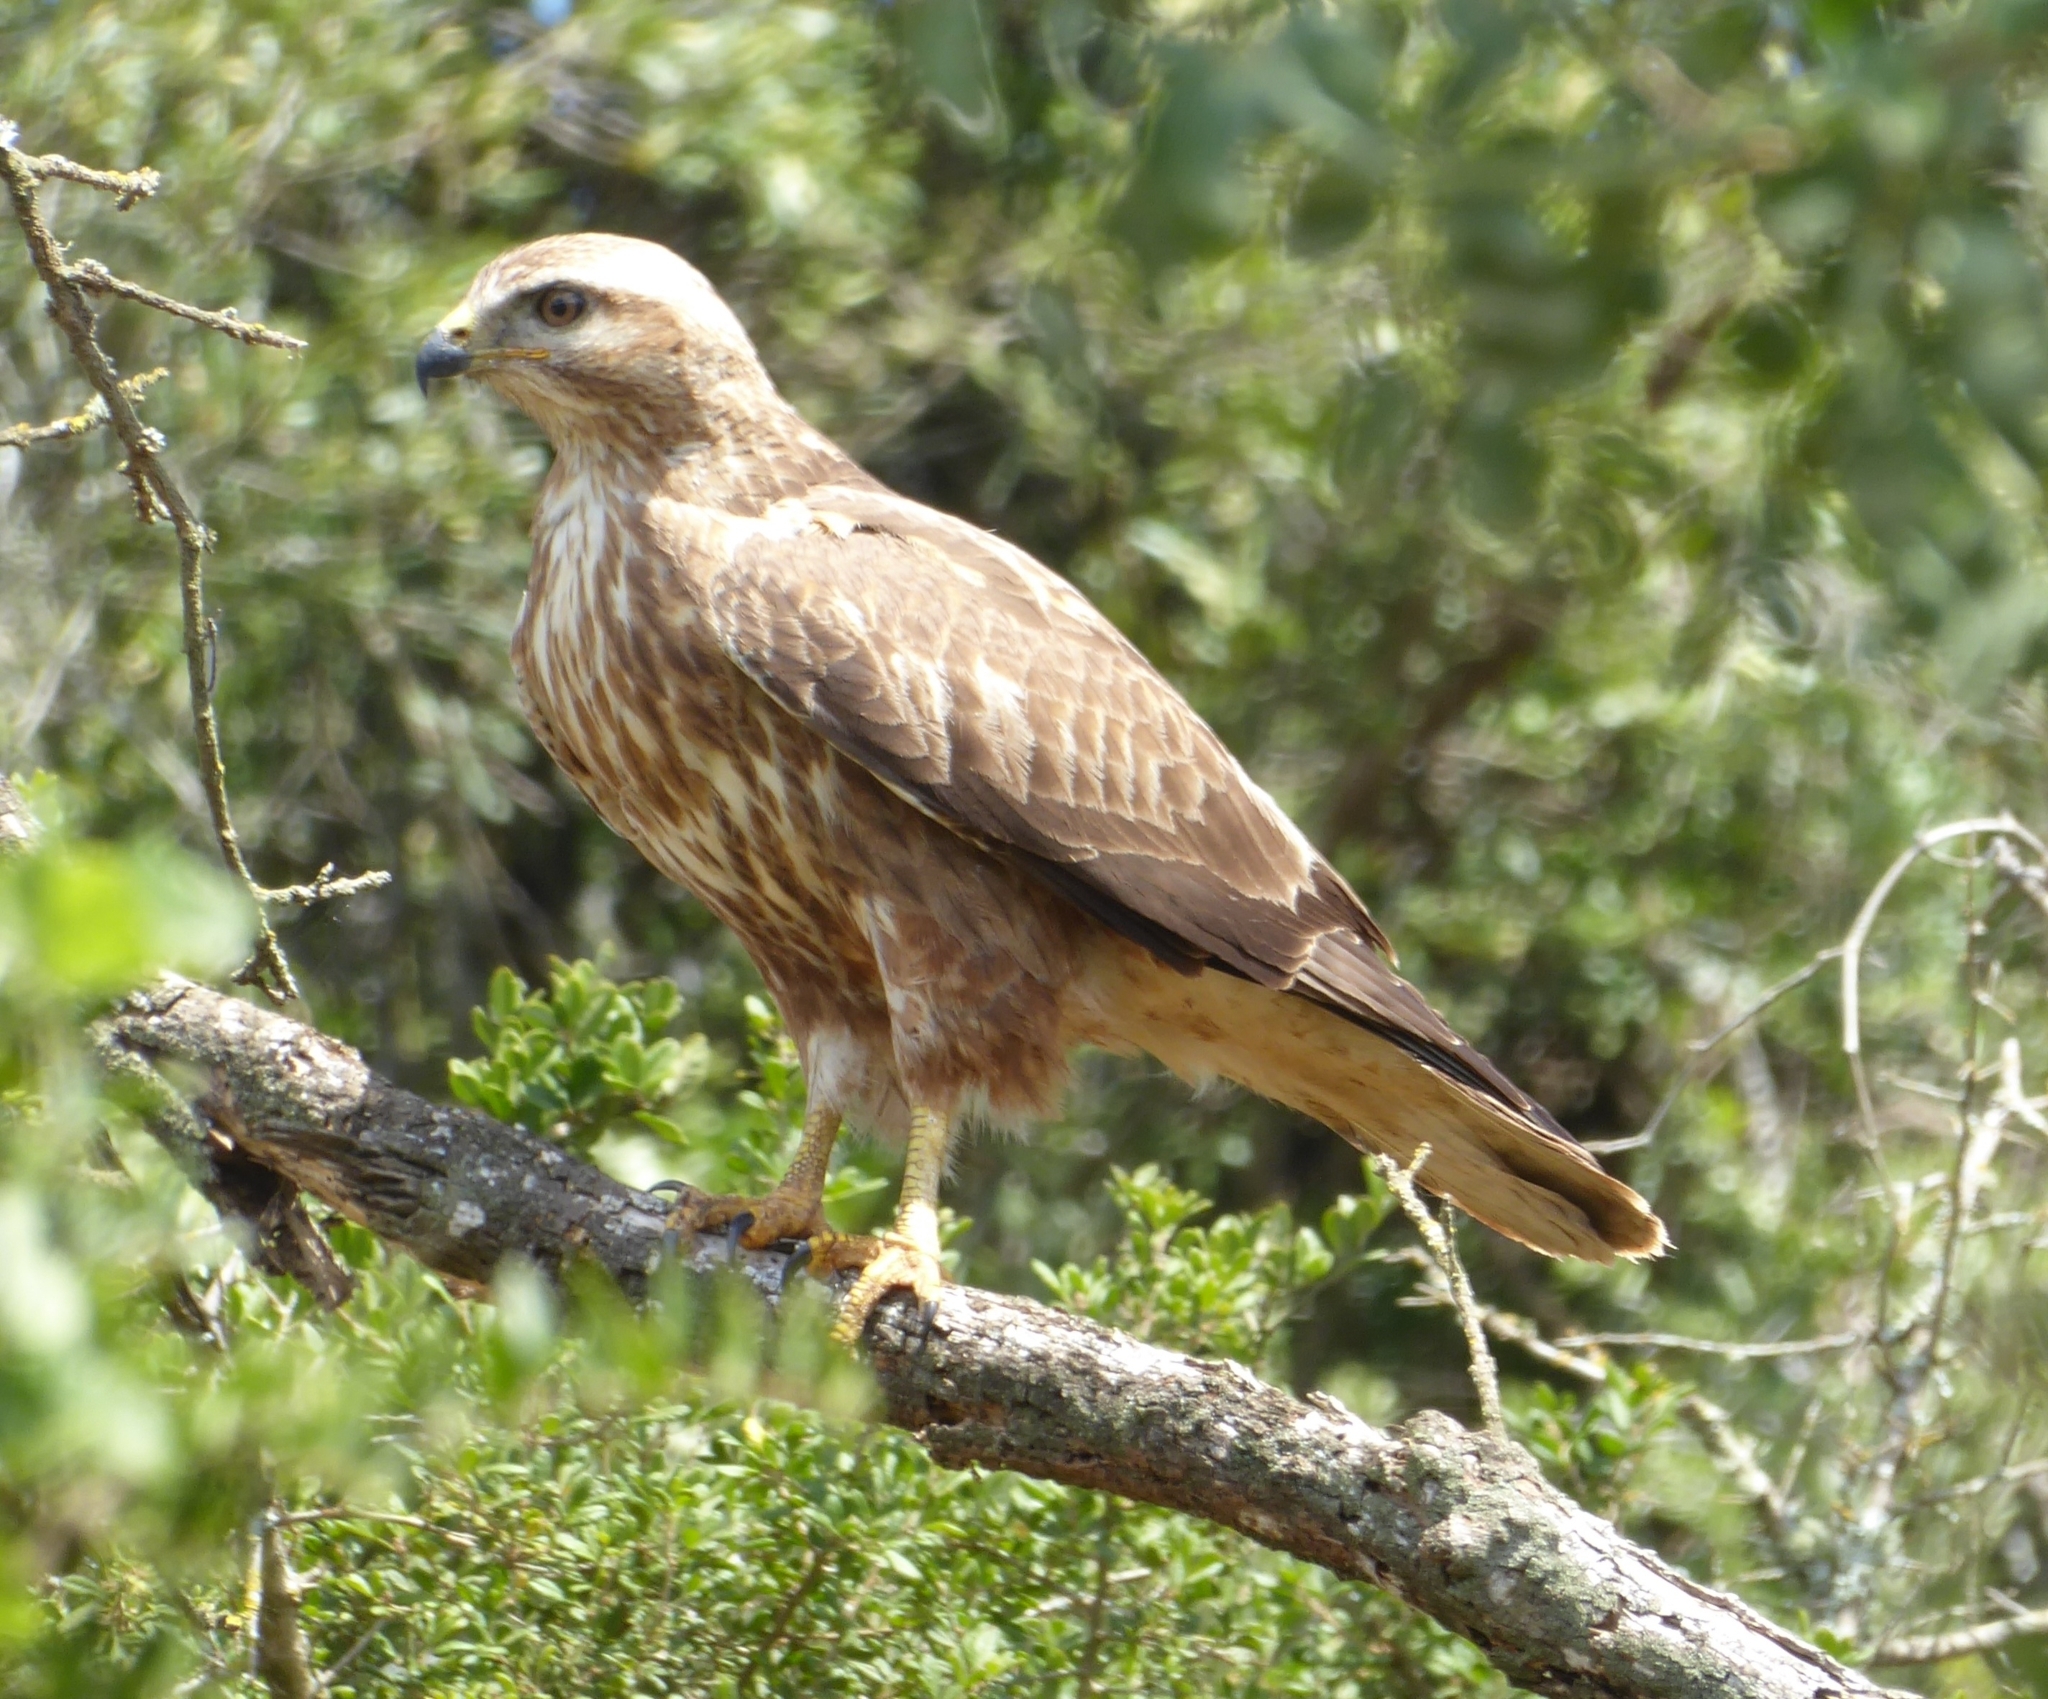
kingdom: Animalia
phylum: Chordata
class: Aves
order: Accipitriformes
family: Accipitridae
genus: Buteo
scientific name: Buteo buteo
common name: Common buzzard
